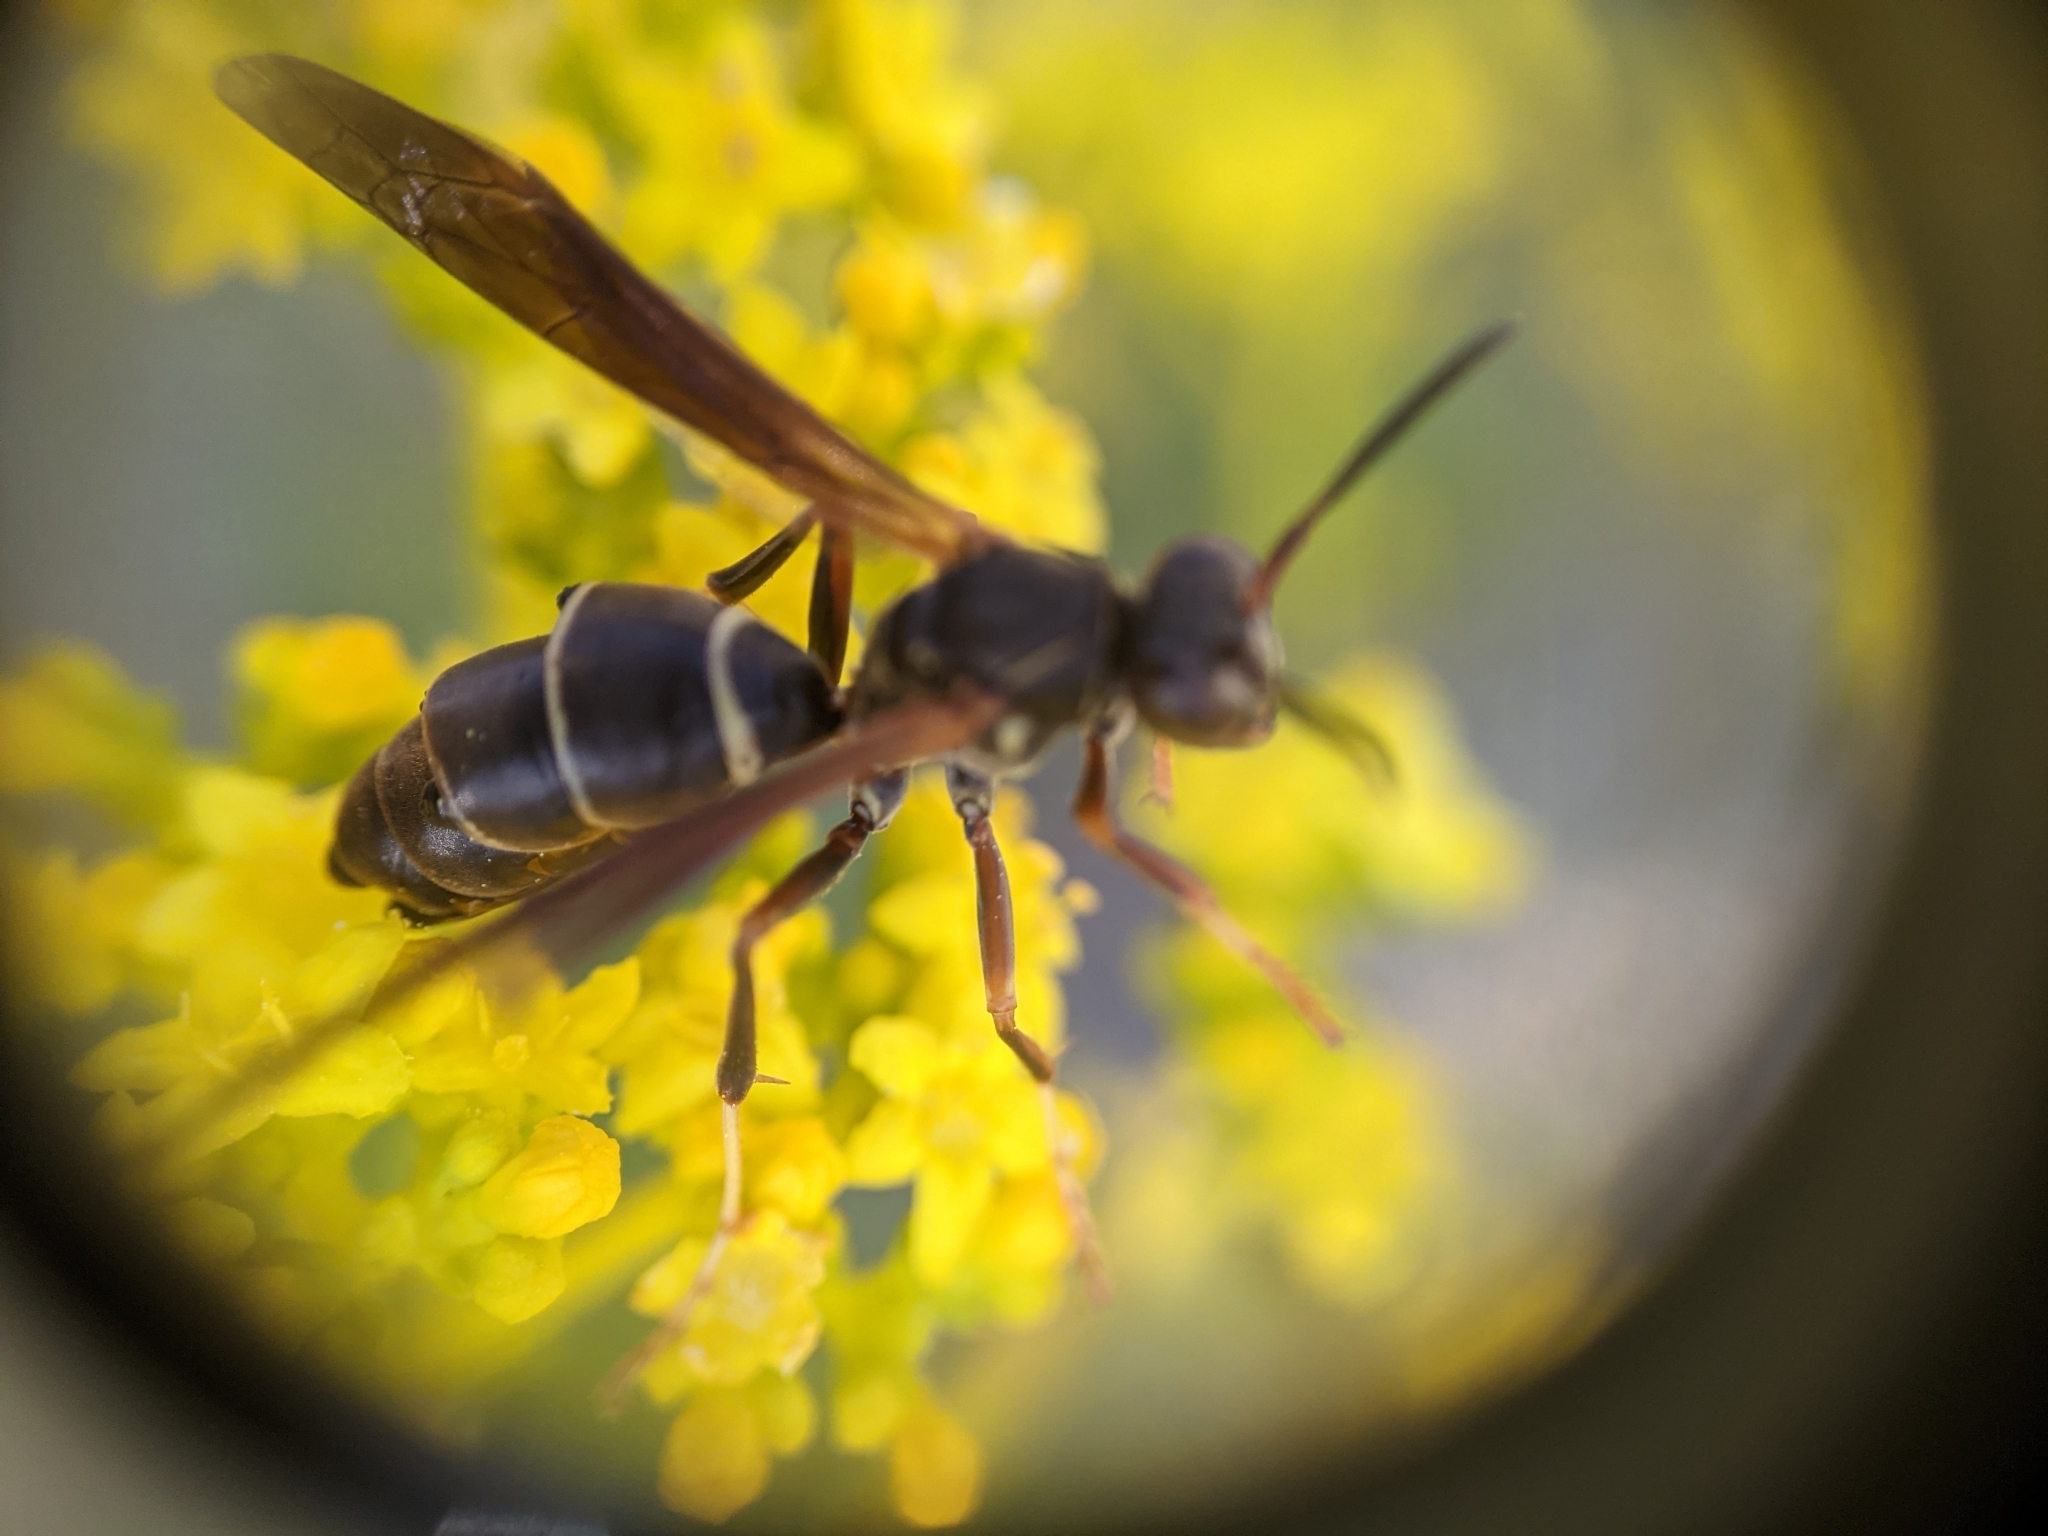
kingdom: Animalia
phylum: Arthropoda
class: Insecta
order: Hymenoptera
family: Eumenidae
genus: Polistes
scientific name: Polistes fuscatus
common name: Dark paper wasp
